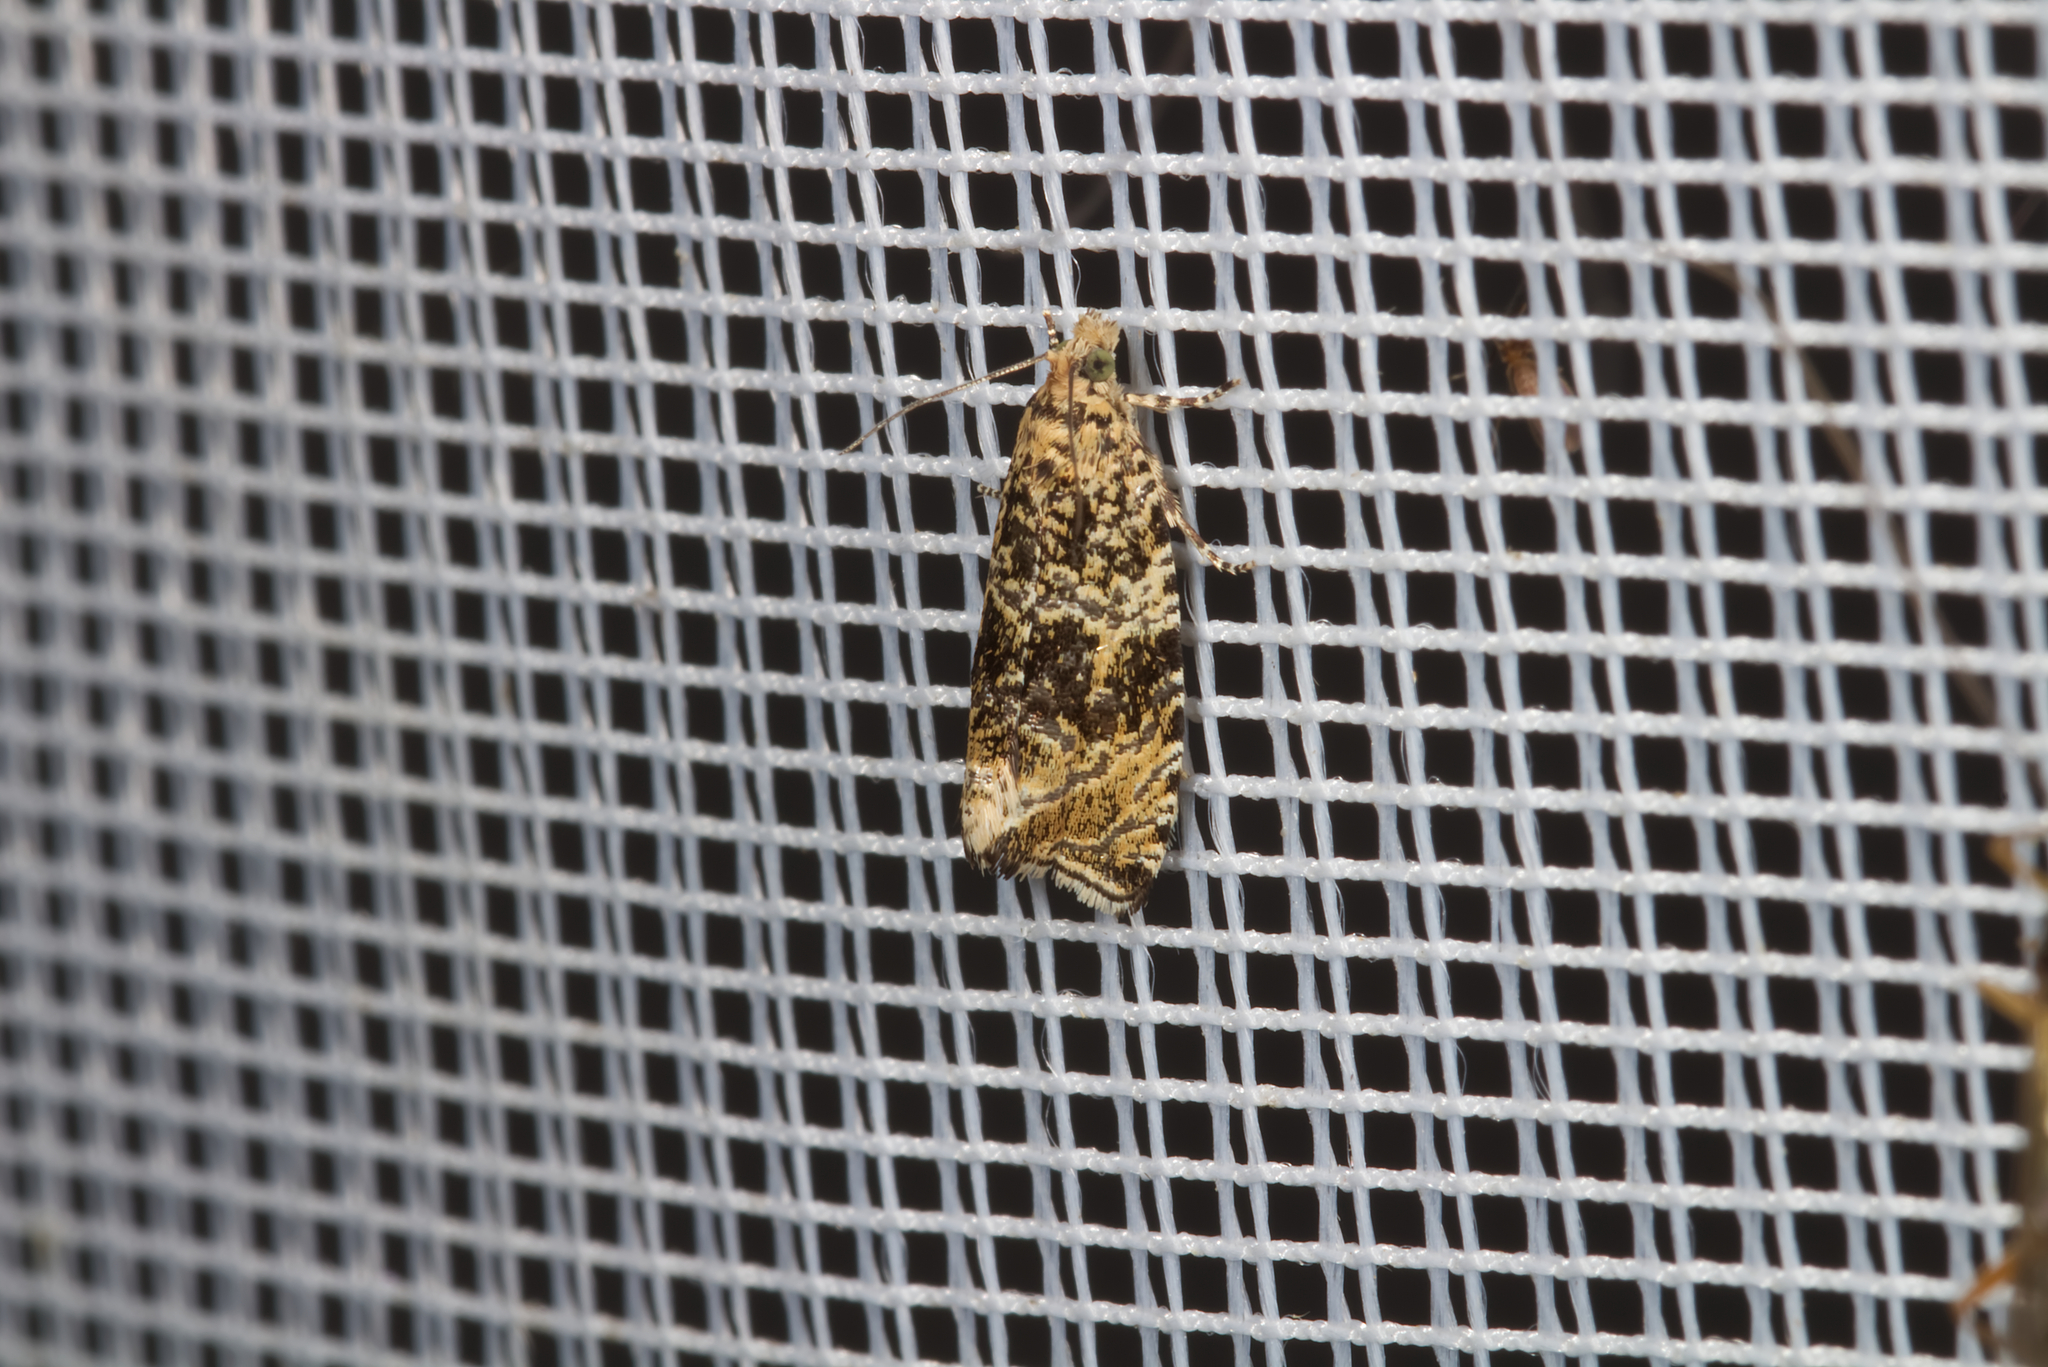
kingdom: Animalia
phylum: Arthropoda
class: Insecta
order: Lepidoptera
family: Tortricidae
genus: Syricoris
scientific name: Syricoris lacunana
